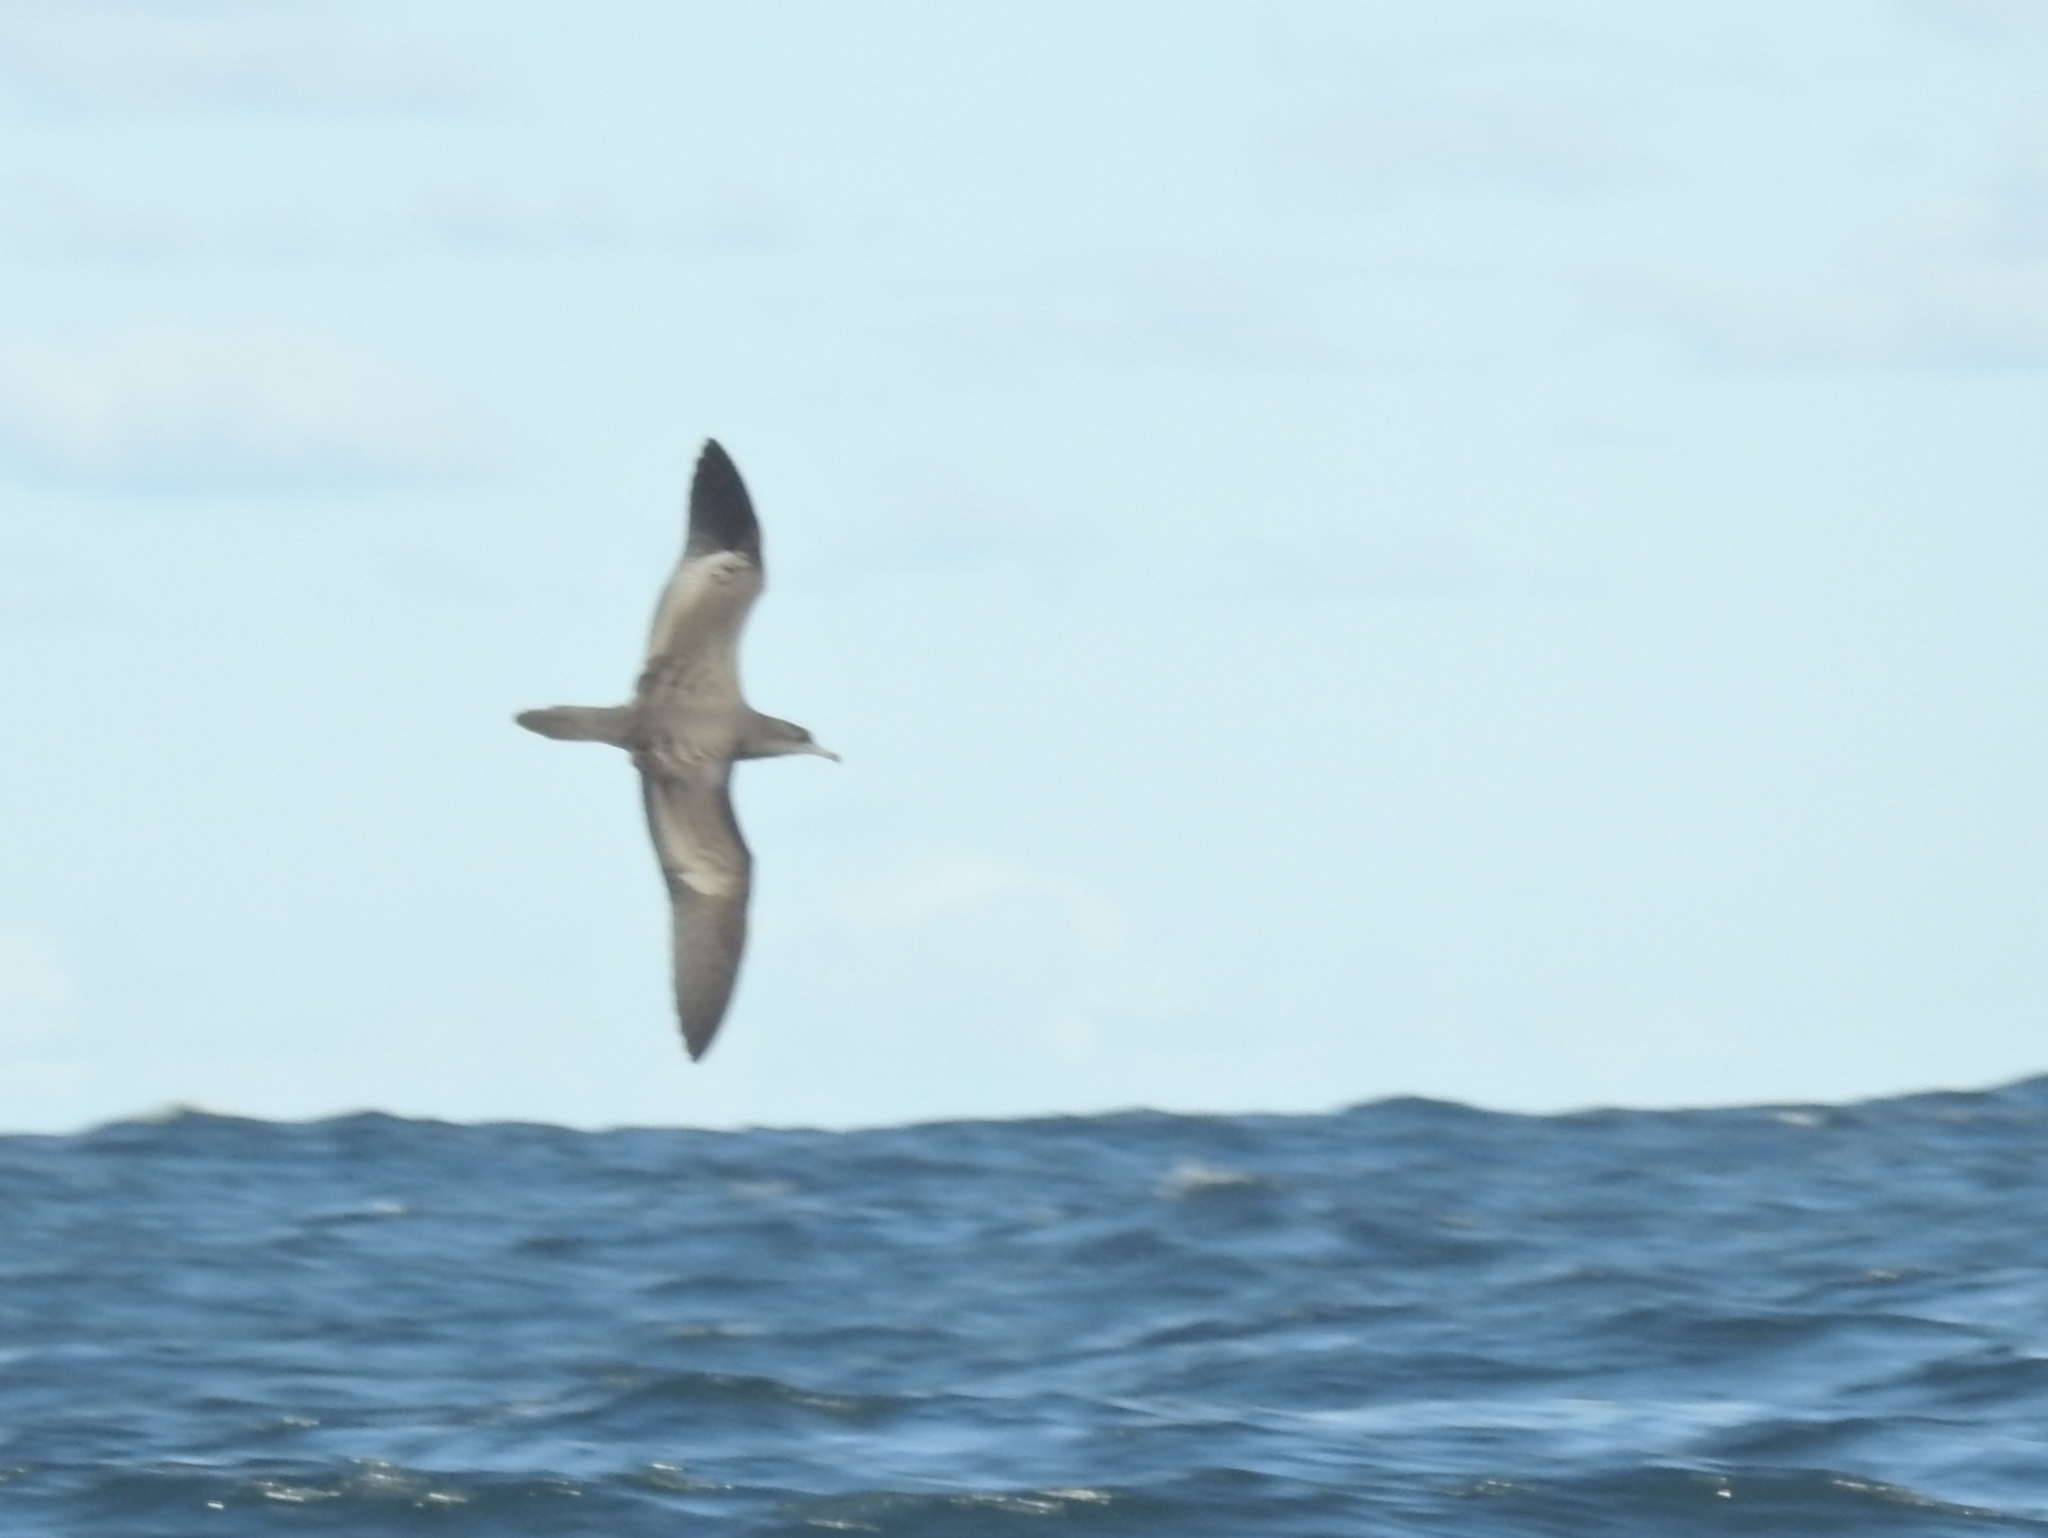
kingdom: Animalia
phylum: Chordata
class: Aves
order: Procellariiformes
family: Procellariidae
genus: Puffinus
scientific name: Puffinus pacificus
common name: Wedge-tailed shearwater
